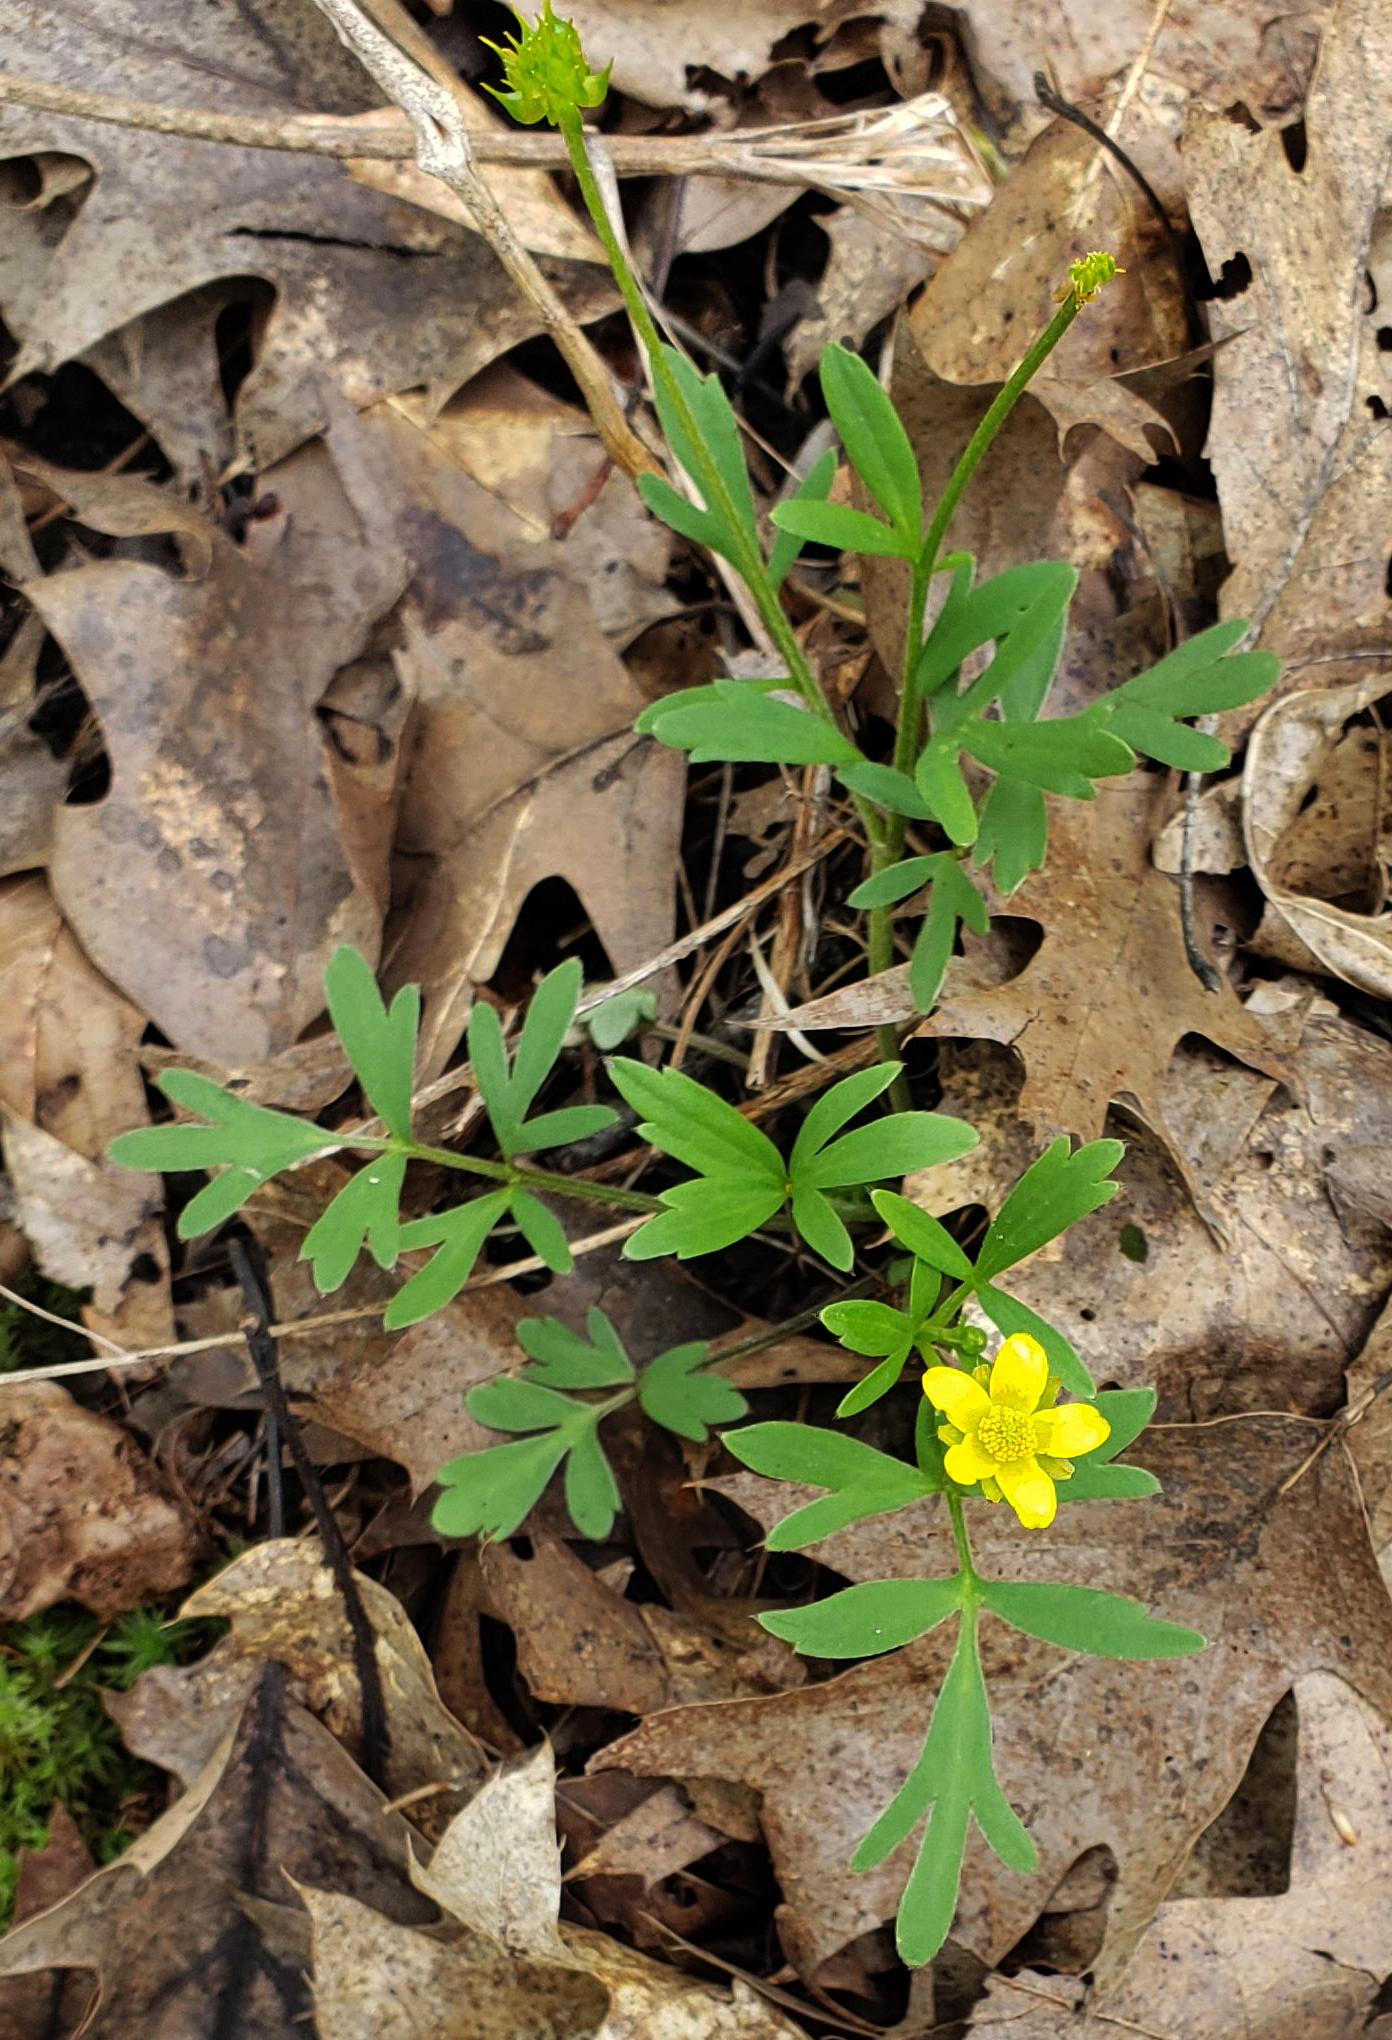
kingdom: Plantae
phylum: Tracheophyta
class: Magnoliopsida
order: Ranunculales
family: Ranunculaceae
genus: Ranunculus
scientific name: Ranunculus fascicularis
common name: Early buttercup
